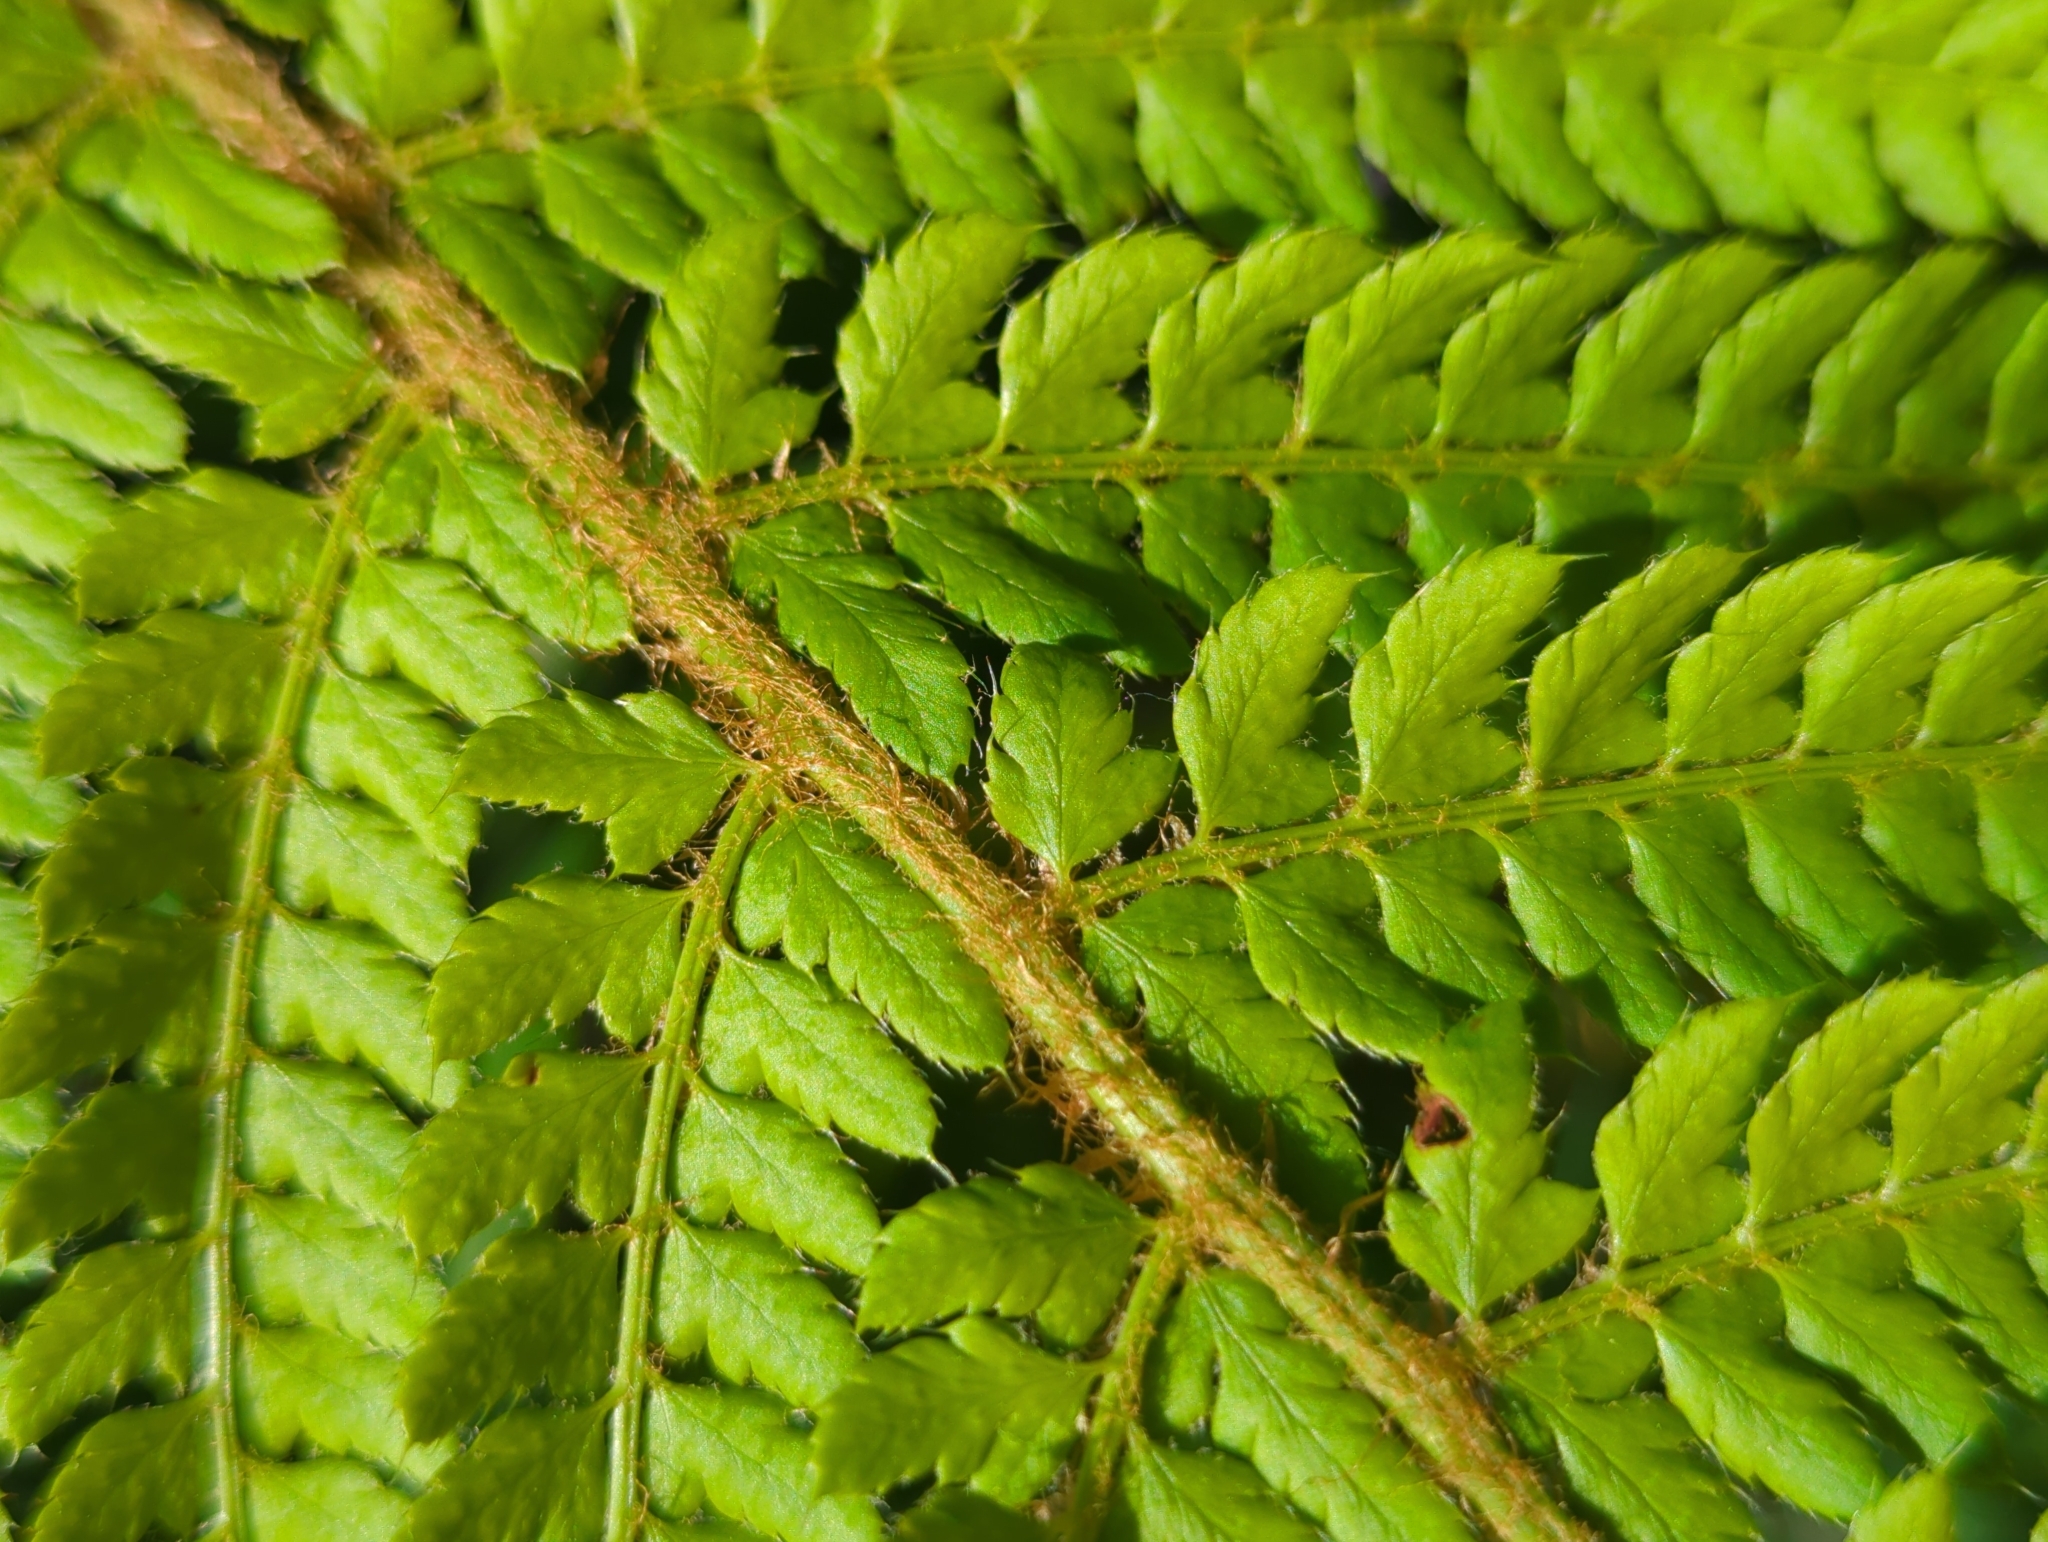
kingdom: Plantae
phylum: Tracheophyta
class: Polypodiopsida
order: Polypodiales
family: Dryopteridaceae
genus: Polystichum
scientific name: Polystichum setiferum
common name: Soft shield-fern
